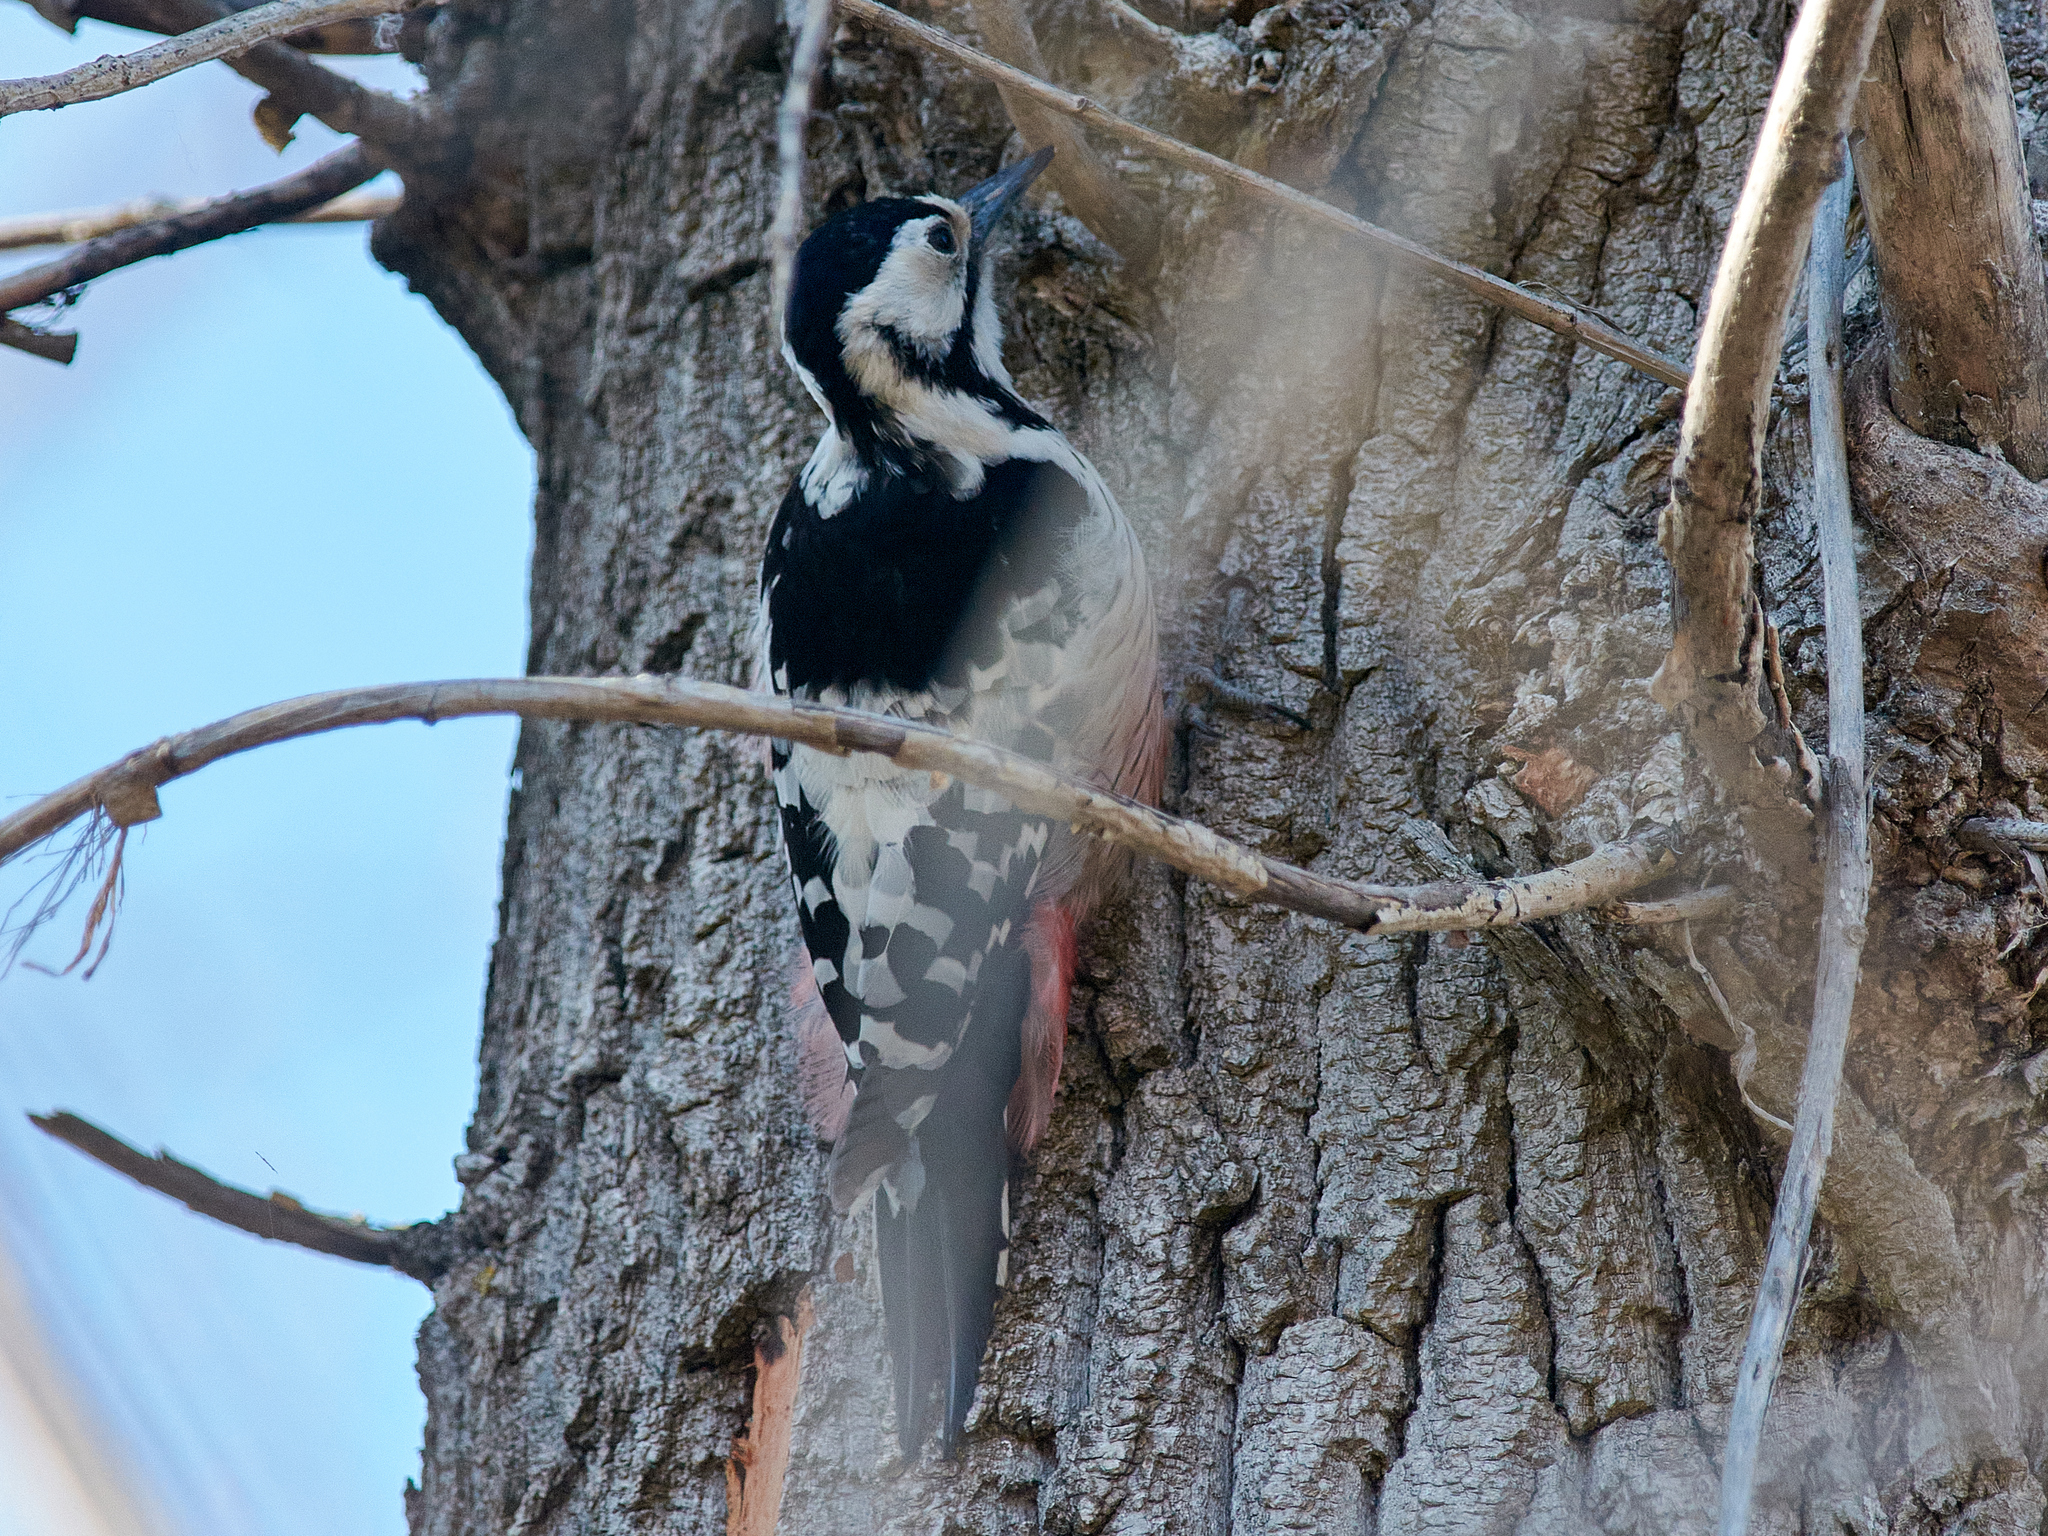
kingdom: Animalia
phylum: Chordata
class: Aves
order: Piciformes
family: Picidae
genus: Dendrocopos
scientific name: Dendrocopos leucotos
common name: White-backed woodpecker
